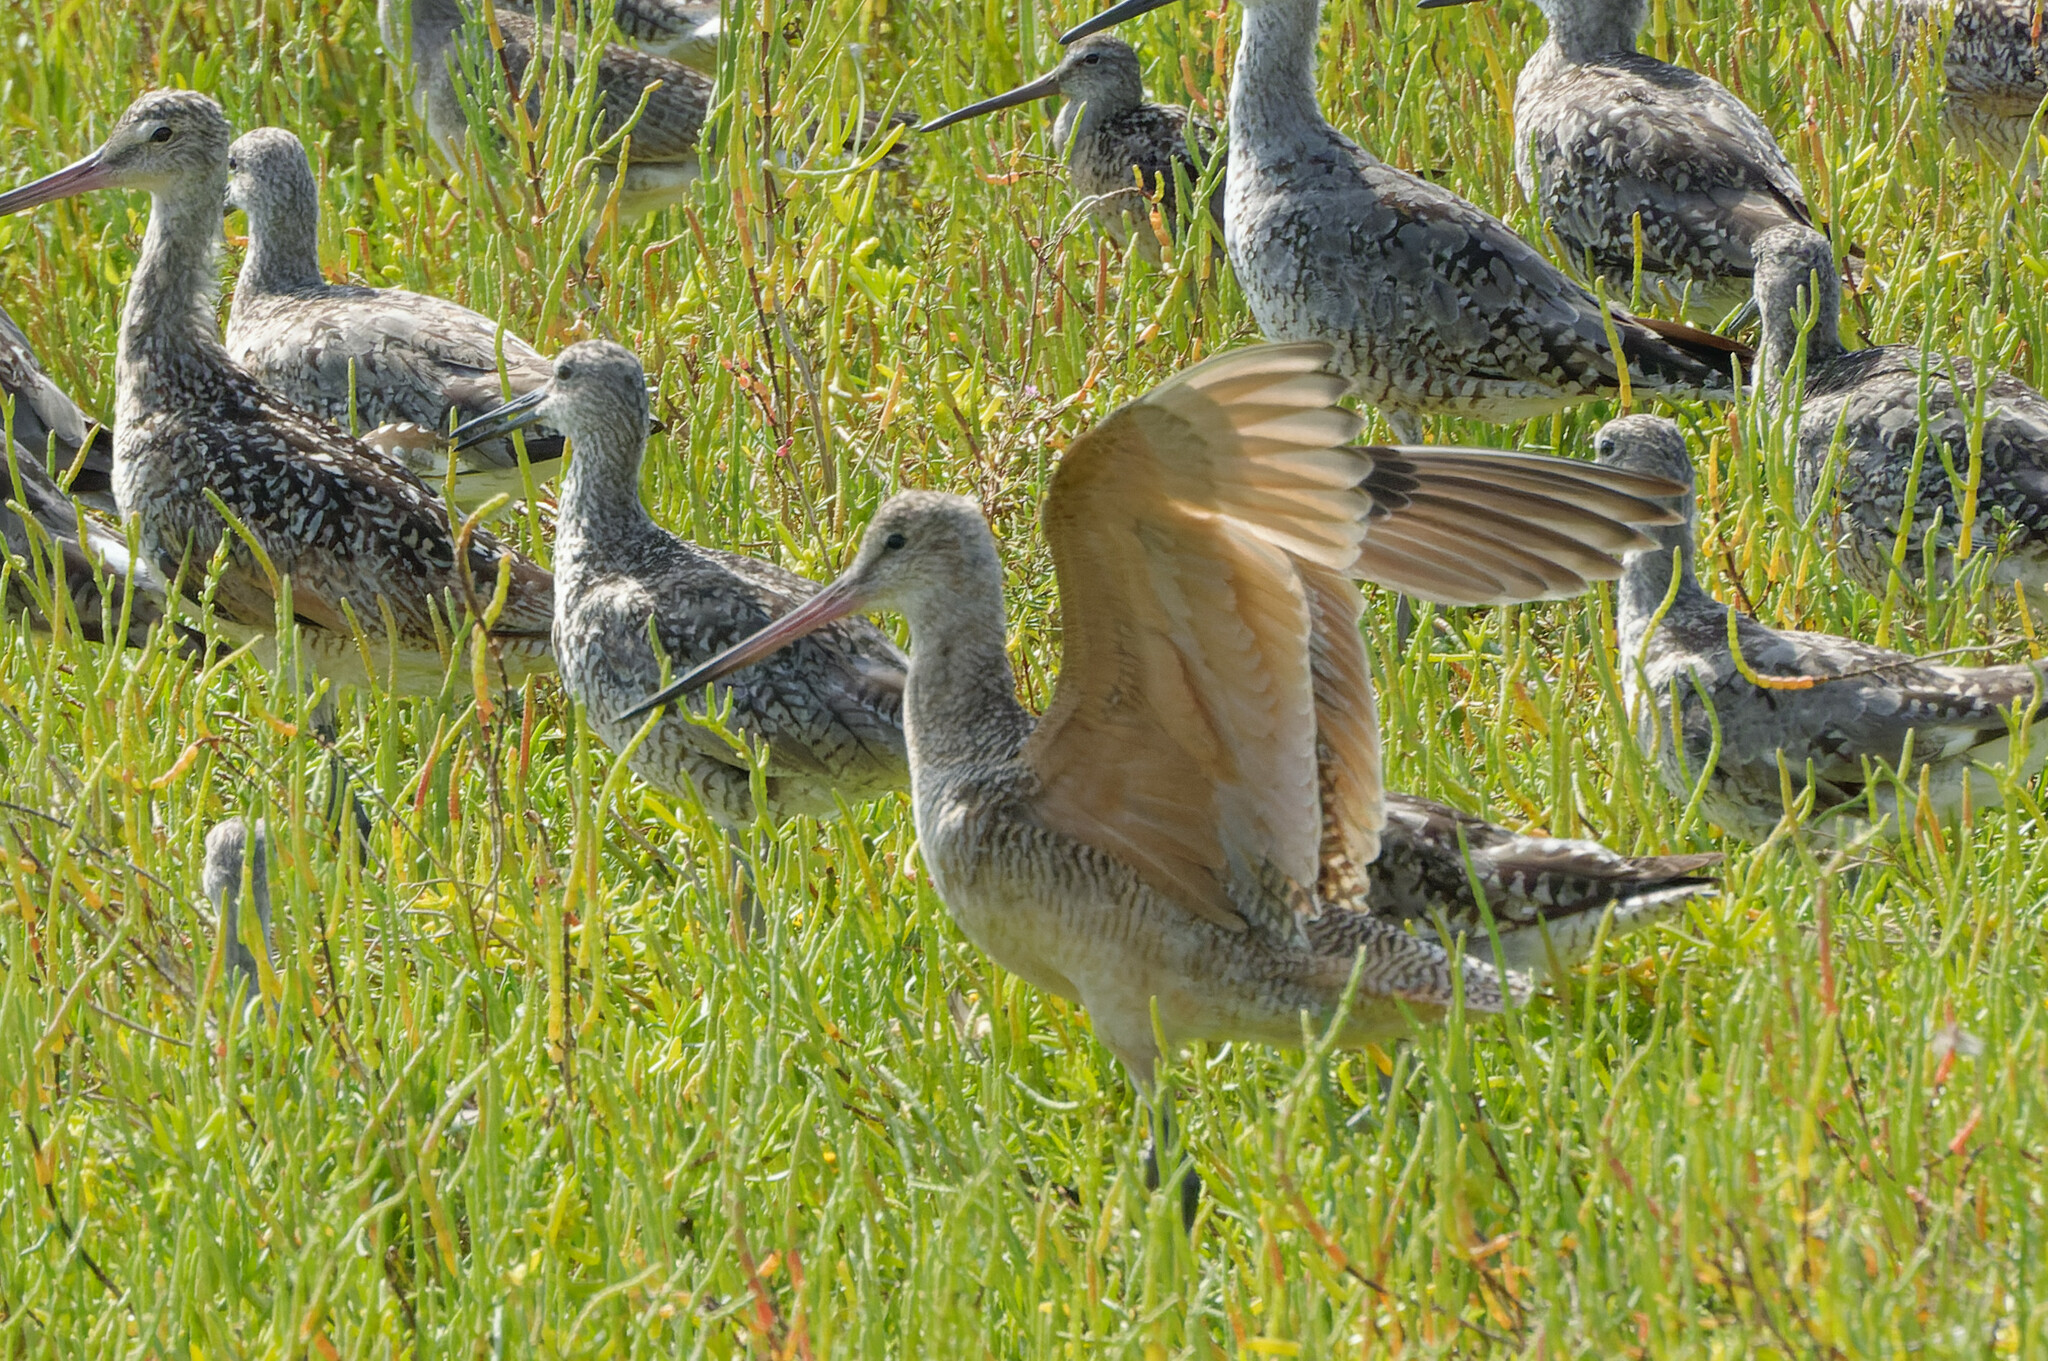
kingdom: Animalia
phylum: Chordata
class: Aves
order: Charadriiformes
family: Scolopacidae
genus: Limosa
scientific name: Limosa fedoa
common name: Marbled godwit
